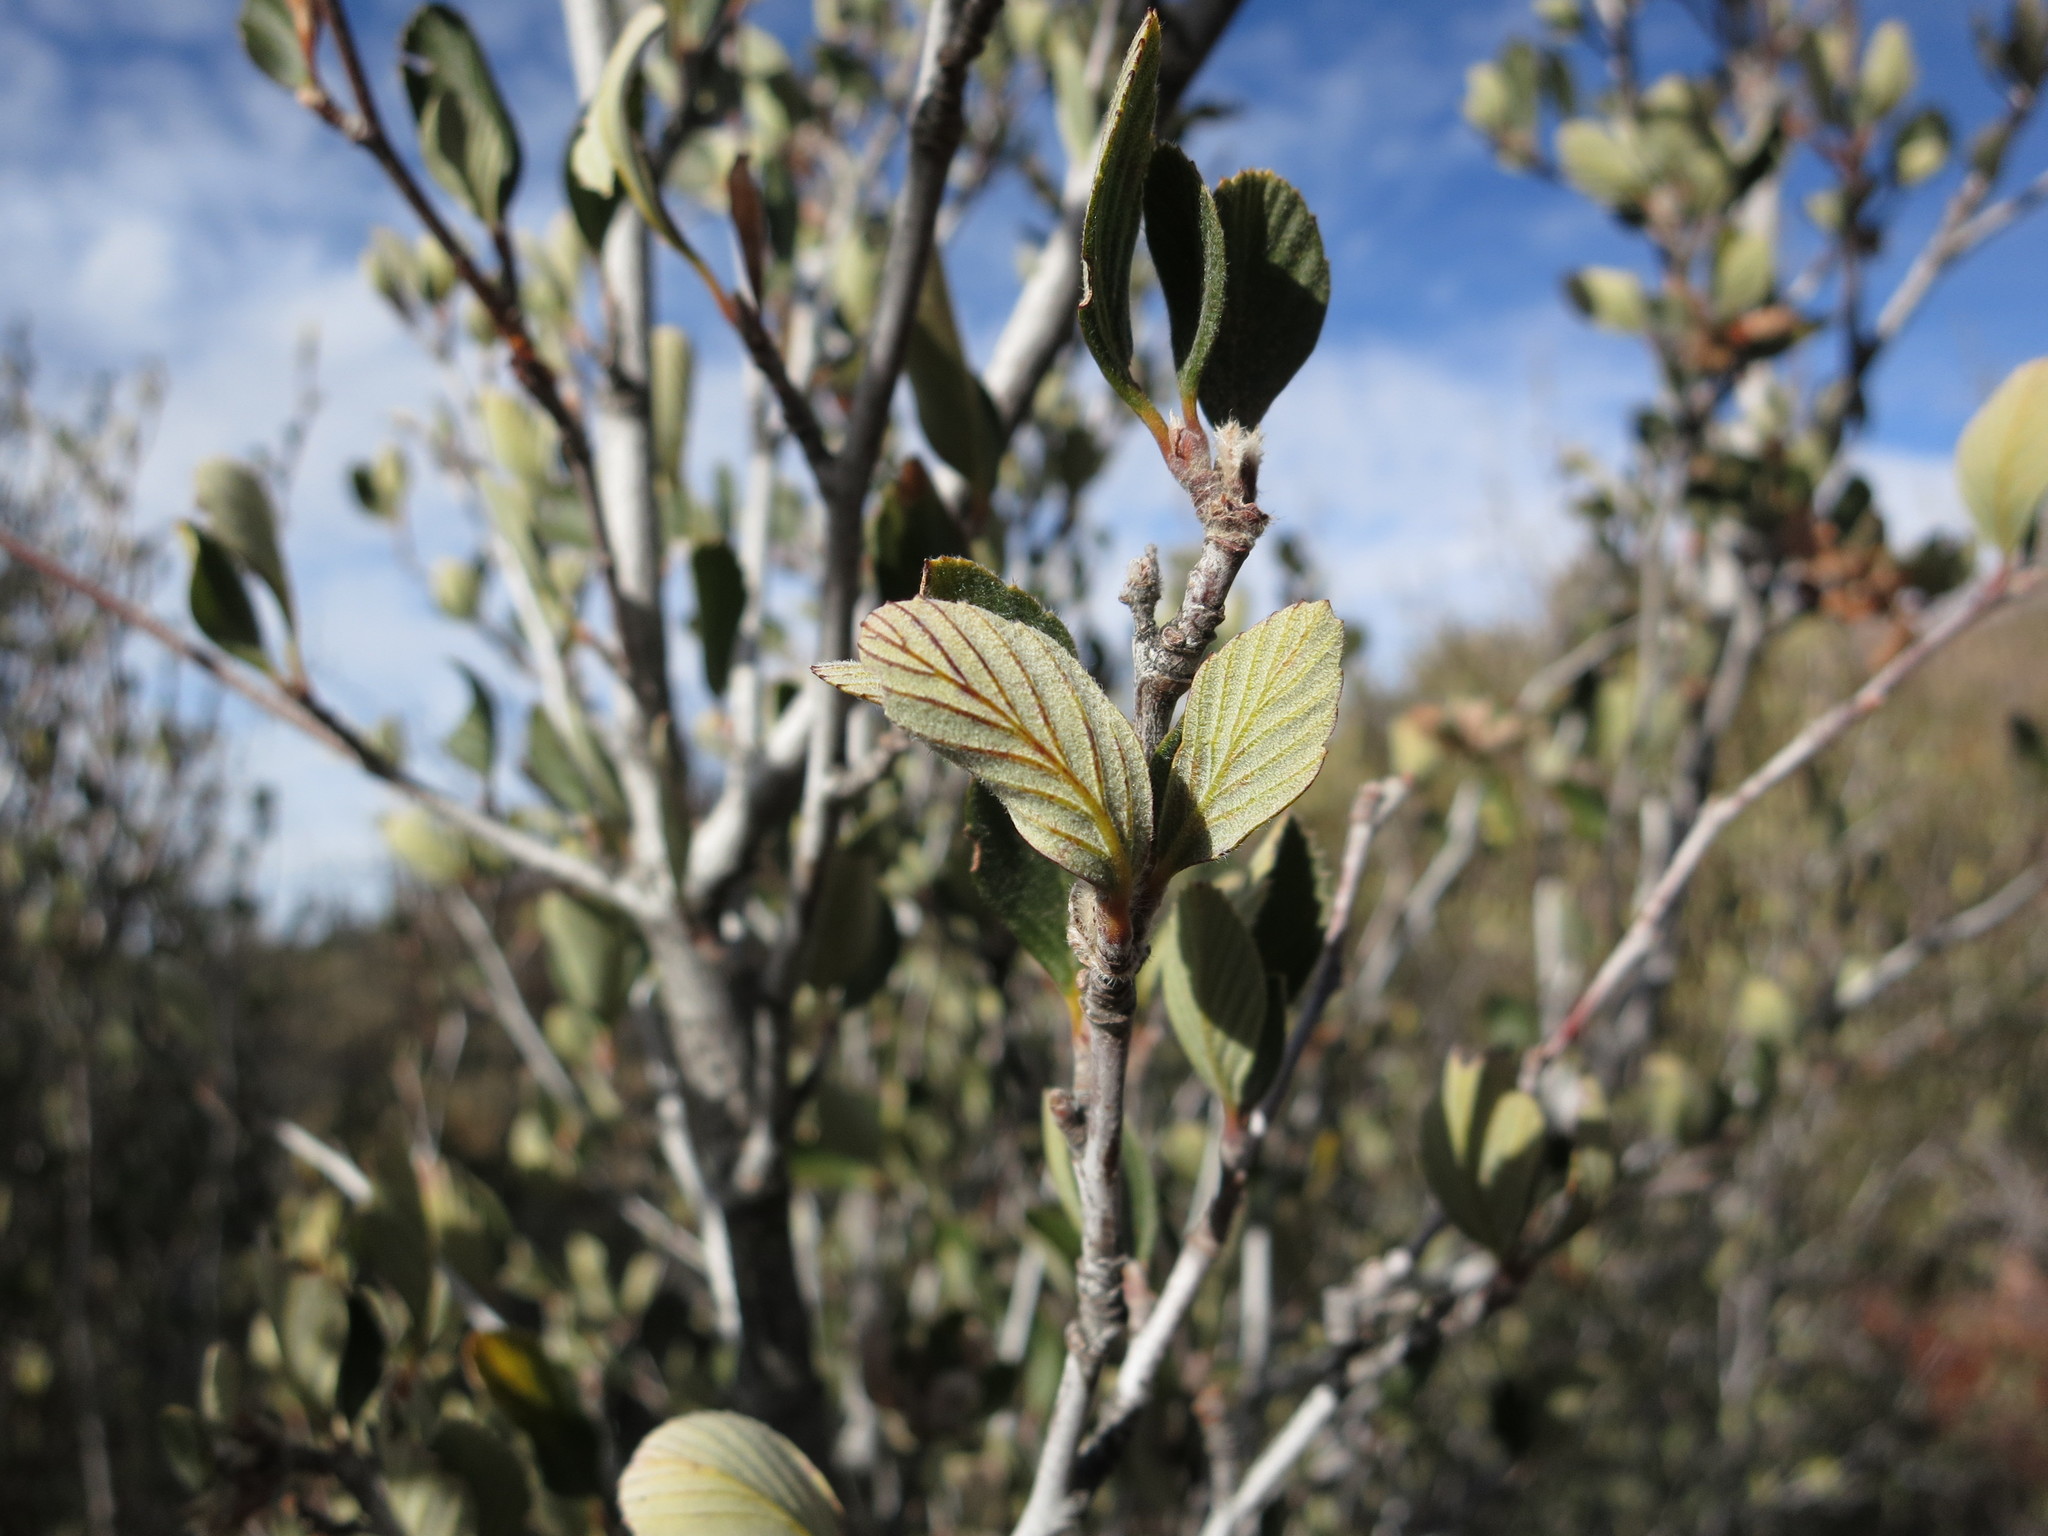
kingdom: Plantae
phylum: Tracheophyta
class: Magnoliopsida
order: Rosales
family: Rosaceae
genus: Cercocarpus
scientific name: Cercocarpus betuloides
